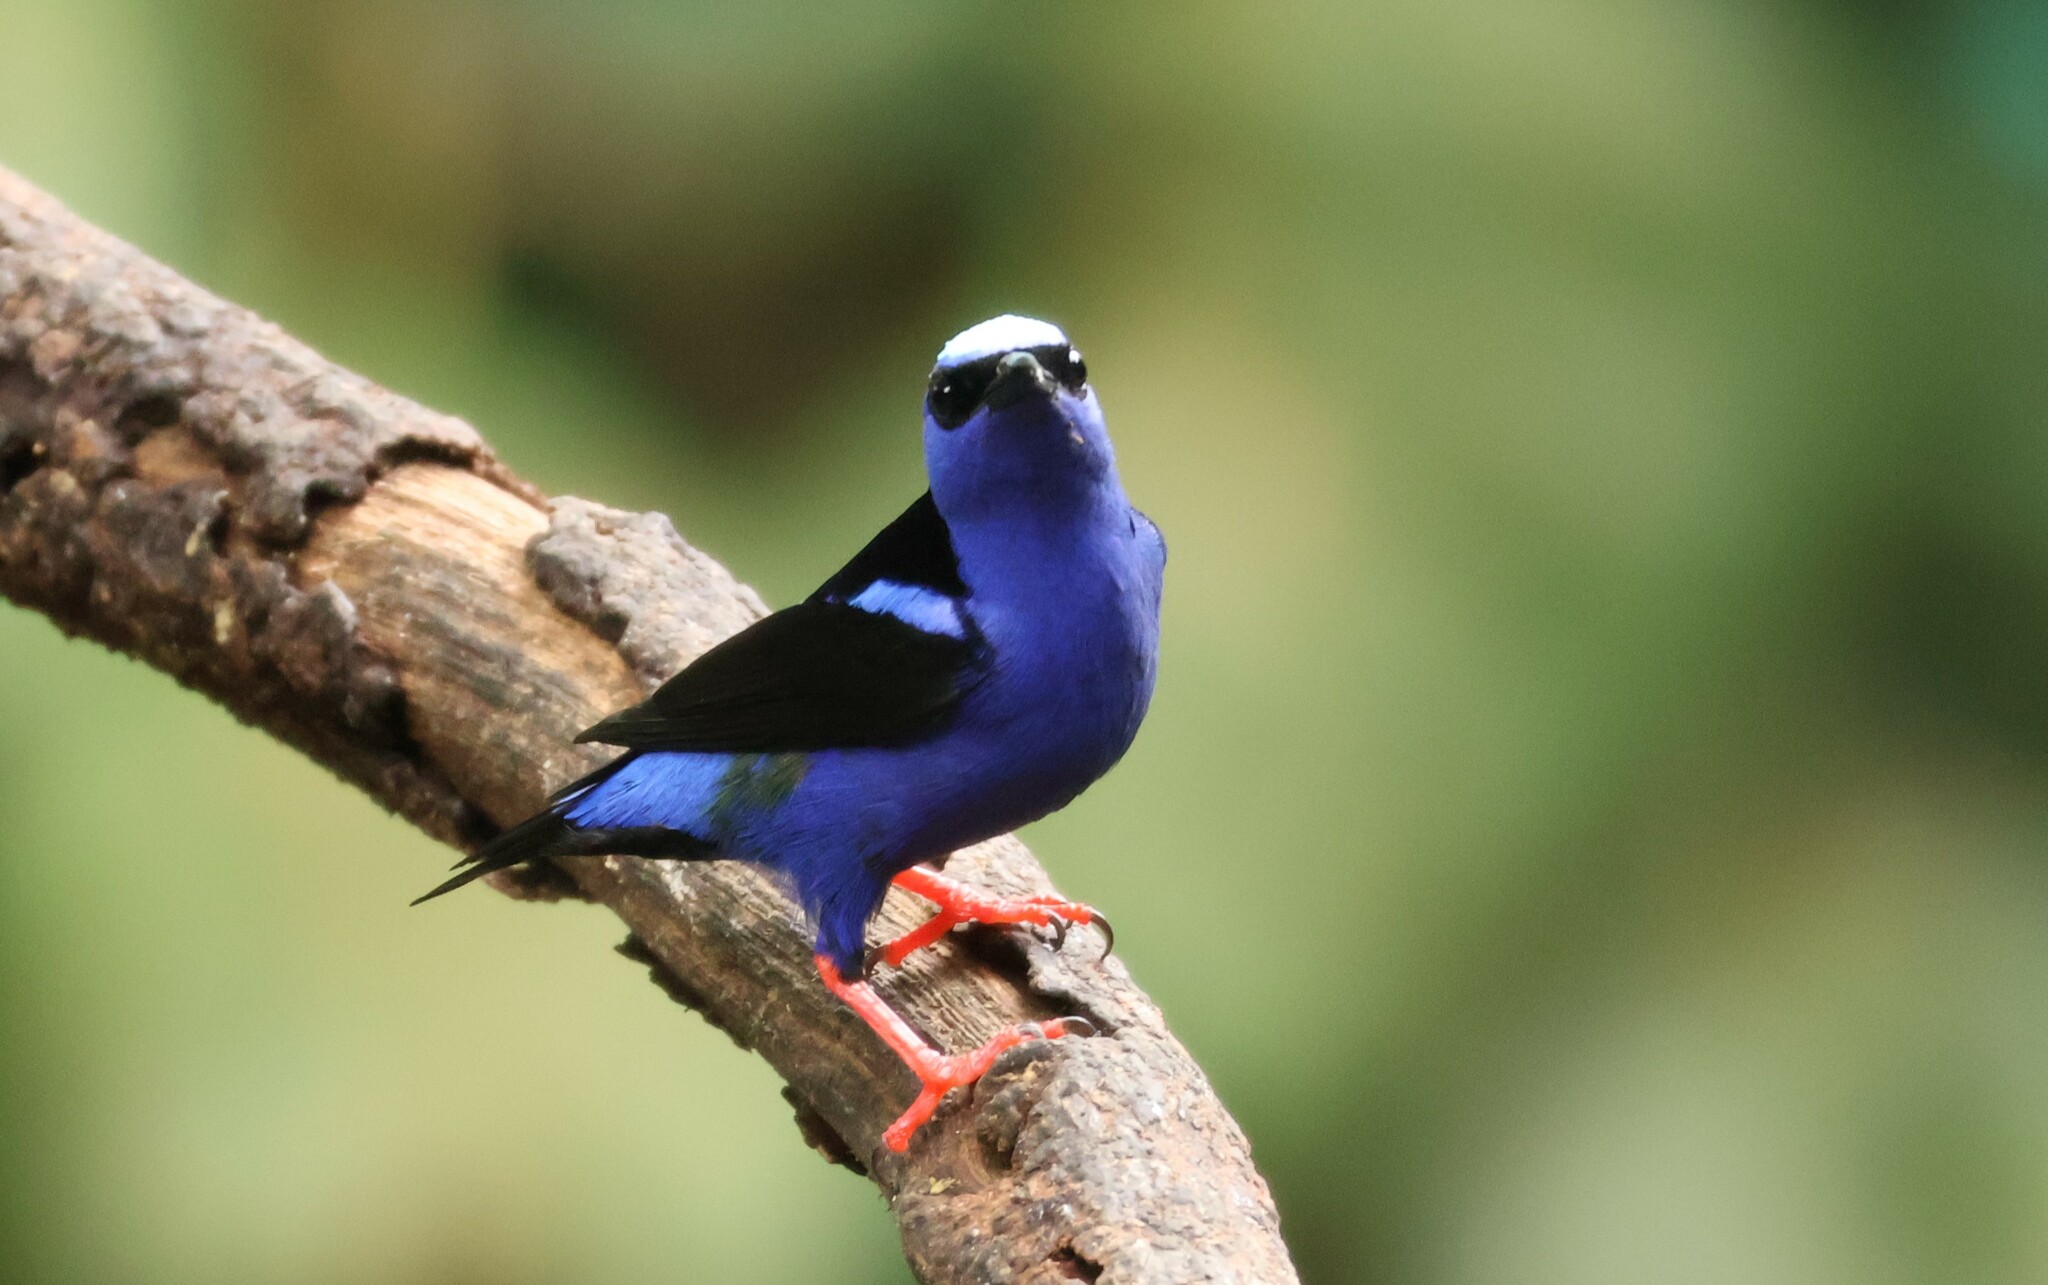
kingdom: Animalia
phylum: Chordata
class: Aves
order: Passeriformes
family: Thraupidae
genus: Cyanerpes
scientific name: Cyanerpes cyaneus
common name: Red-legged honeycreeper
